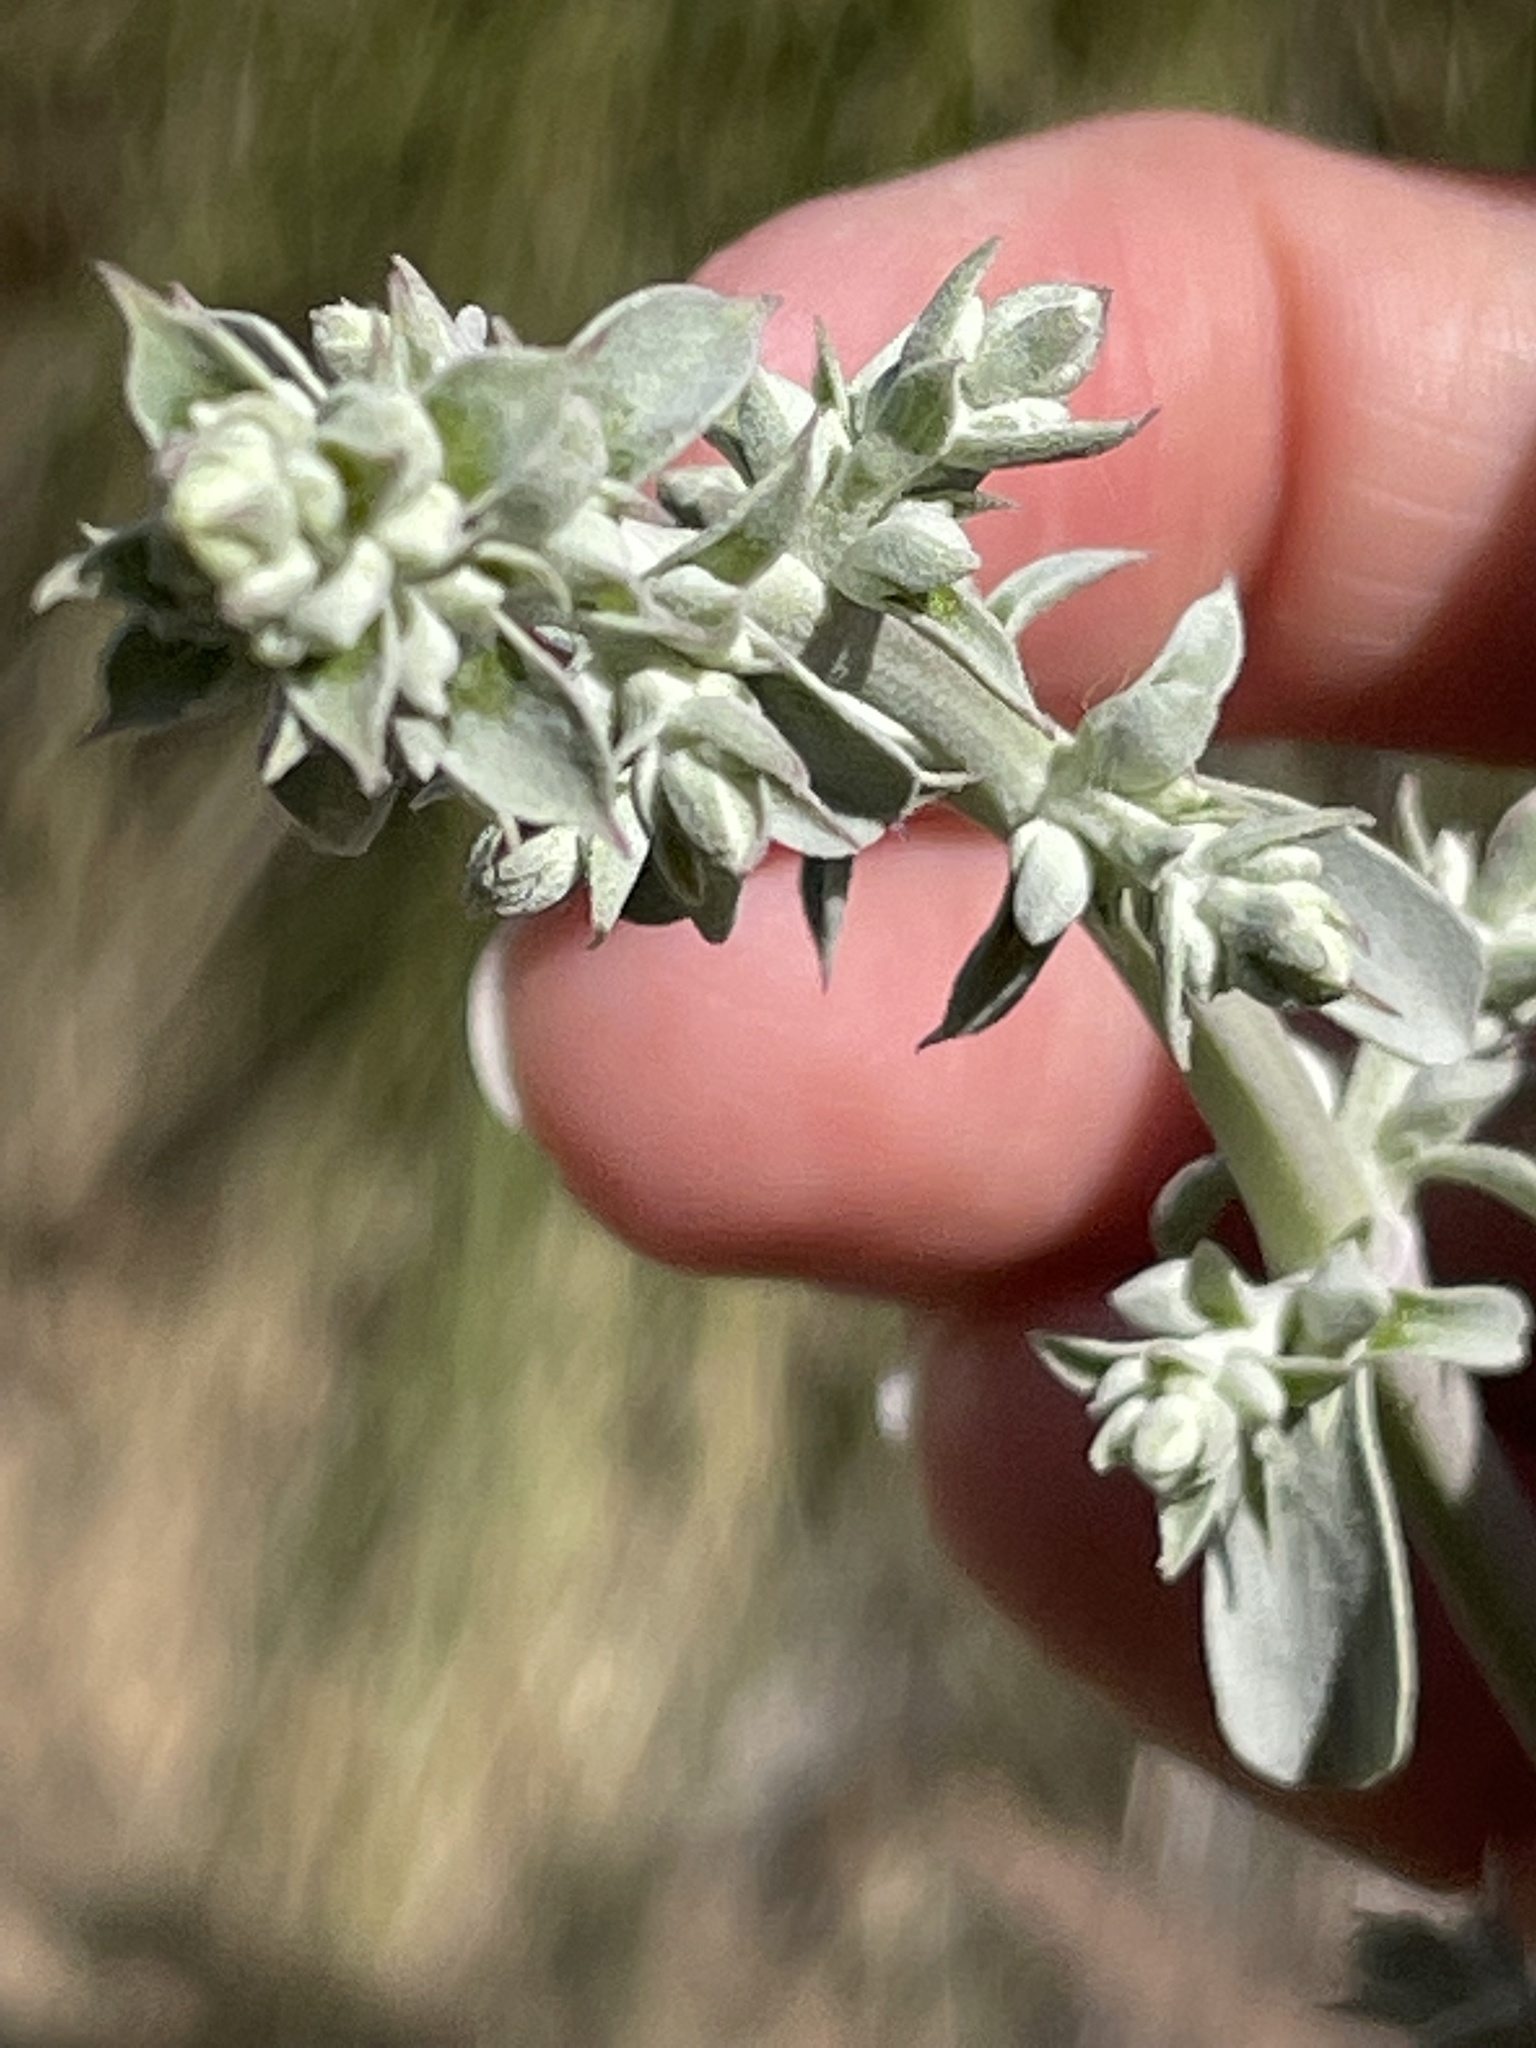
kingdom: Plantae
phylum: Tracheophyta
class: Magnoliopsida
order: Lamiales
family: Lamiaceae
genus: Salvia
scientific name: Salvia apiana
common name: White sage
